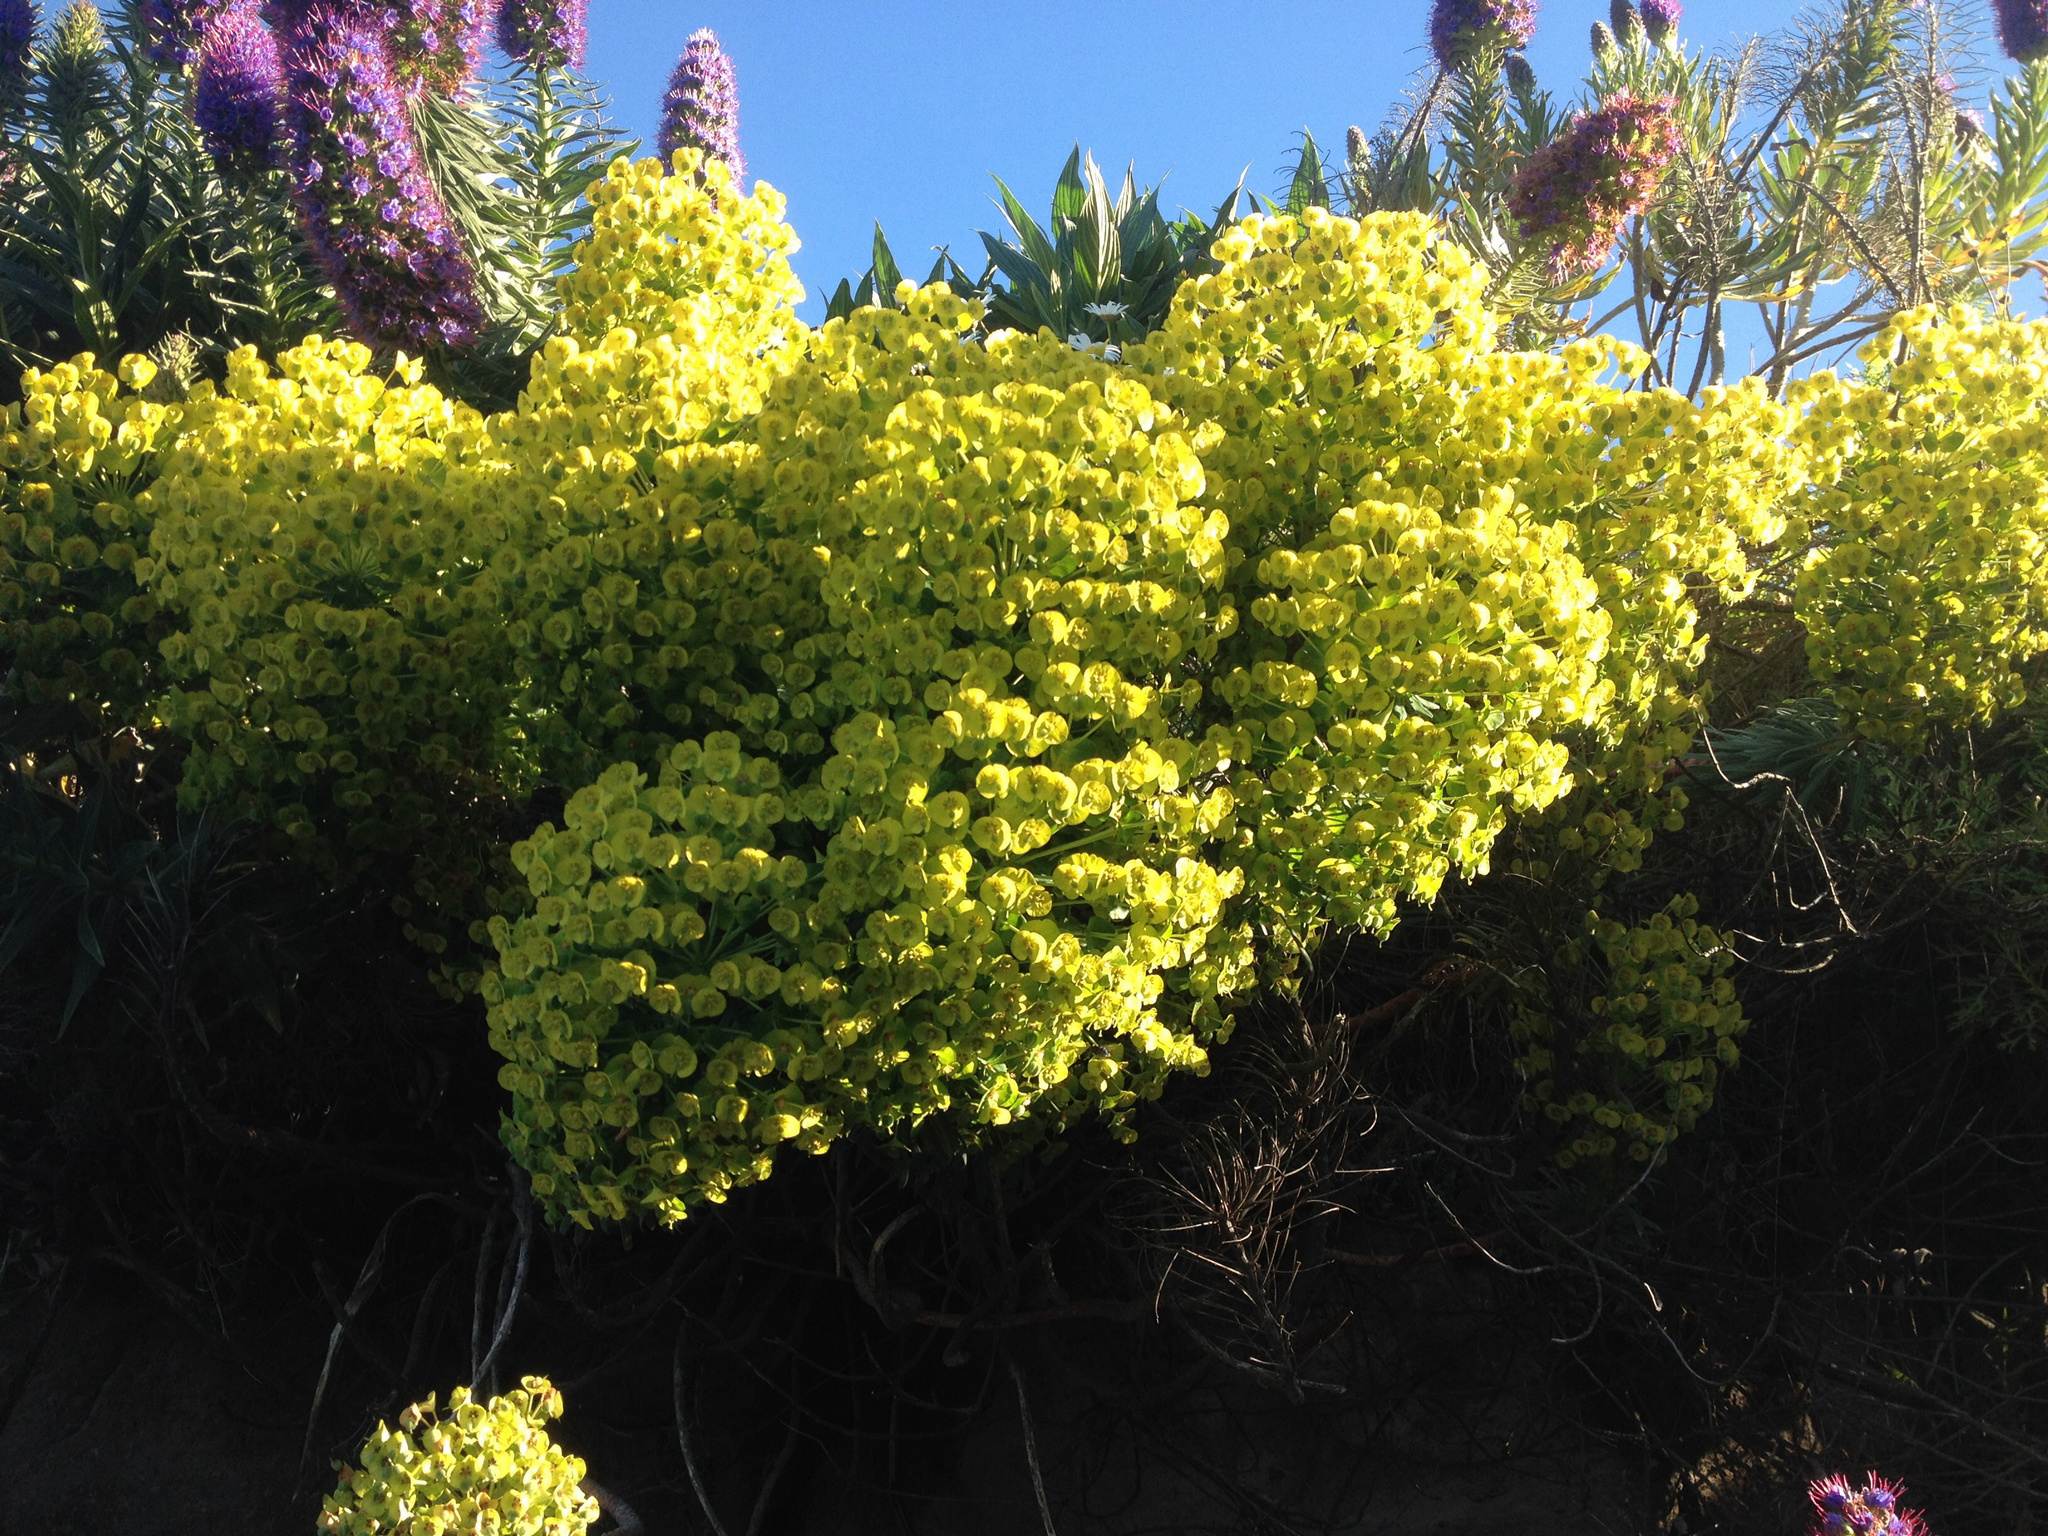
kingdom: Plantae
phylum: Tracheophyta
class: Magnoliopsida
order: Malpighiales
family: Euphorbiaceae
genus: Euphorbia
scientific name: Euphorbia characias
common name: Mediterranean spurge
